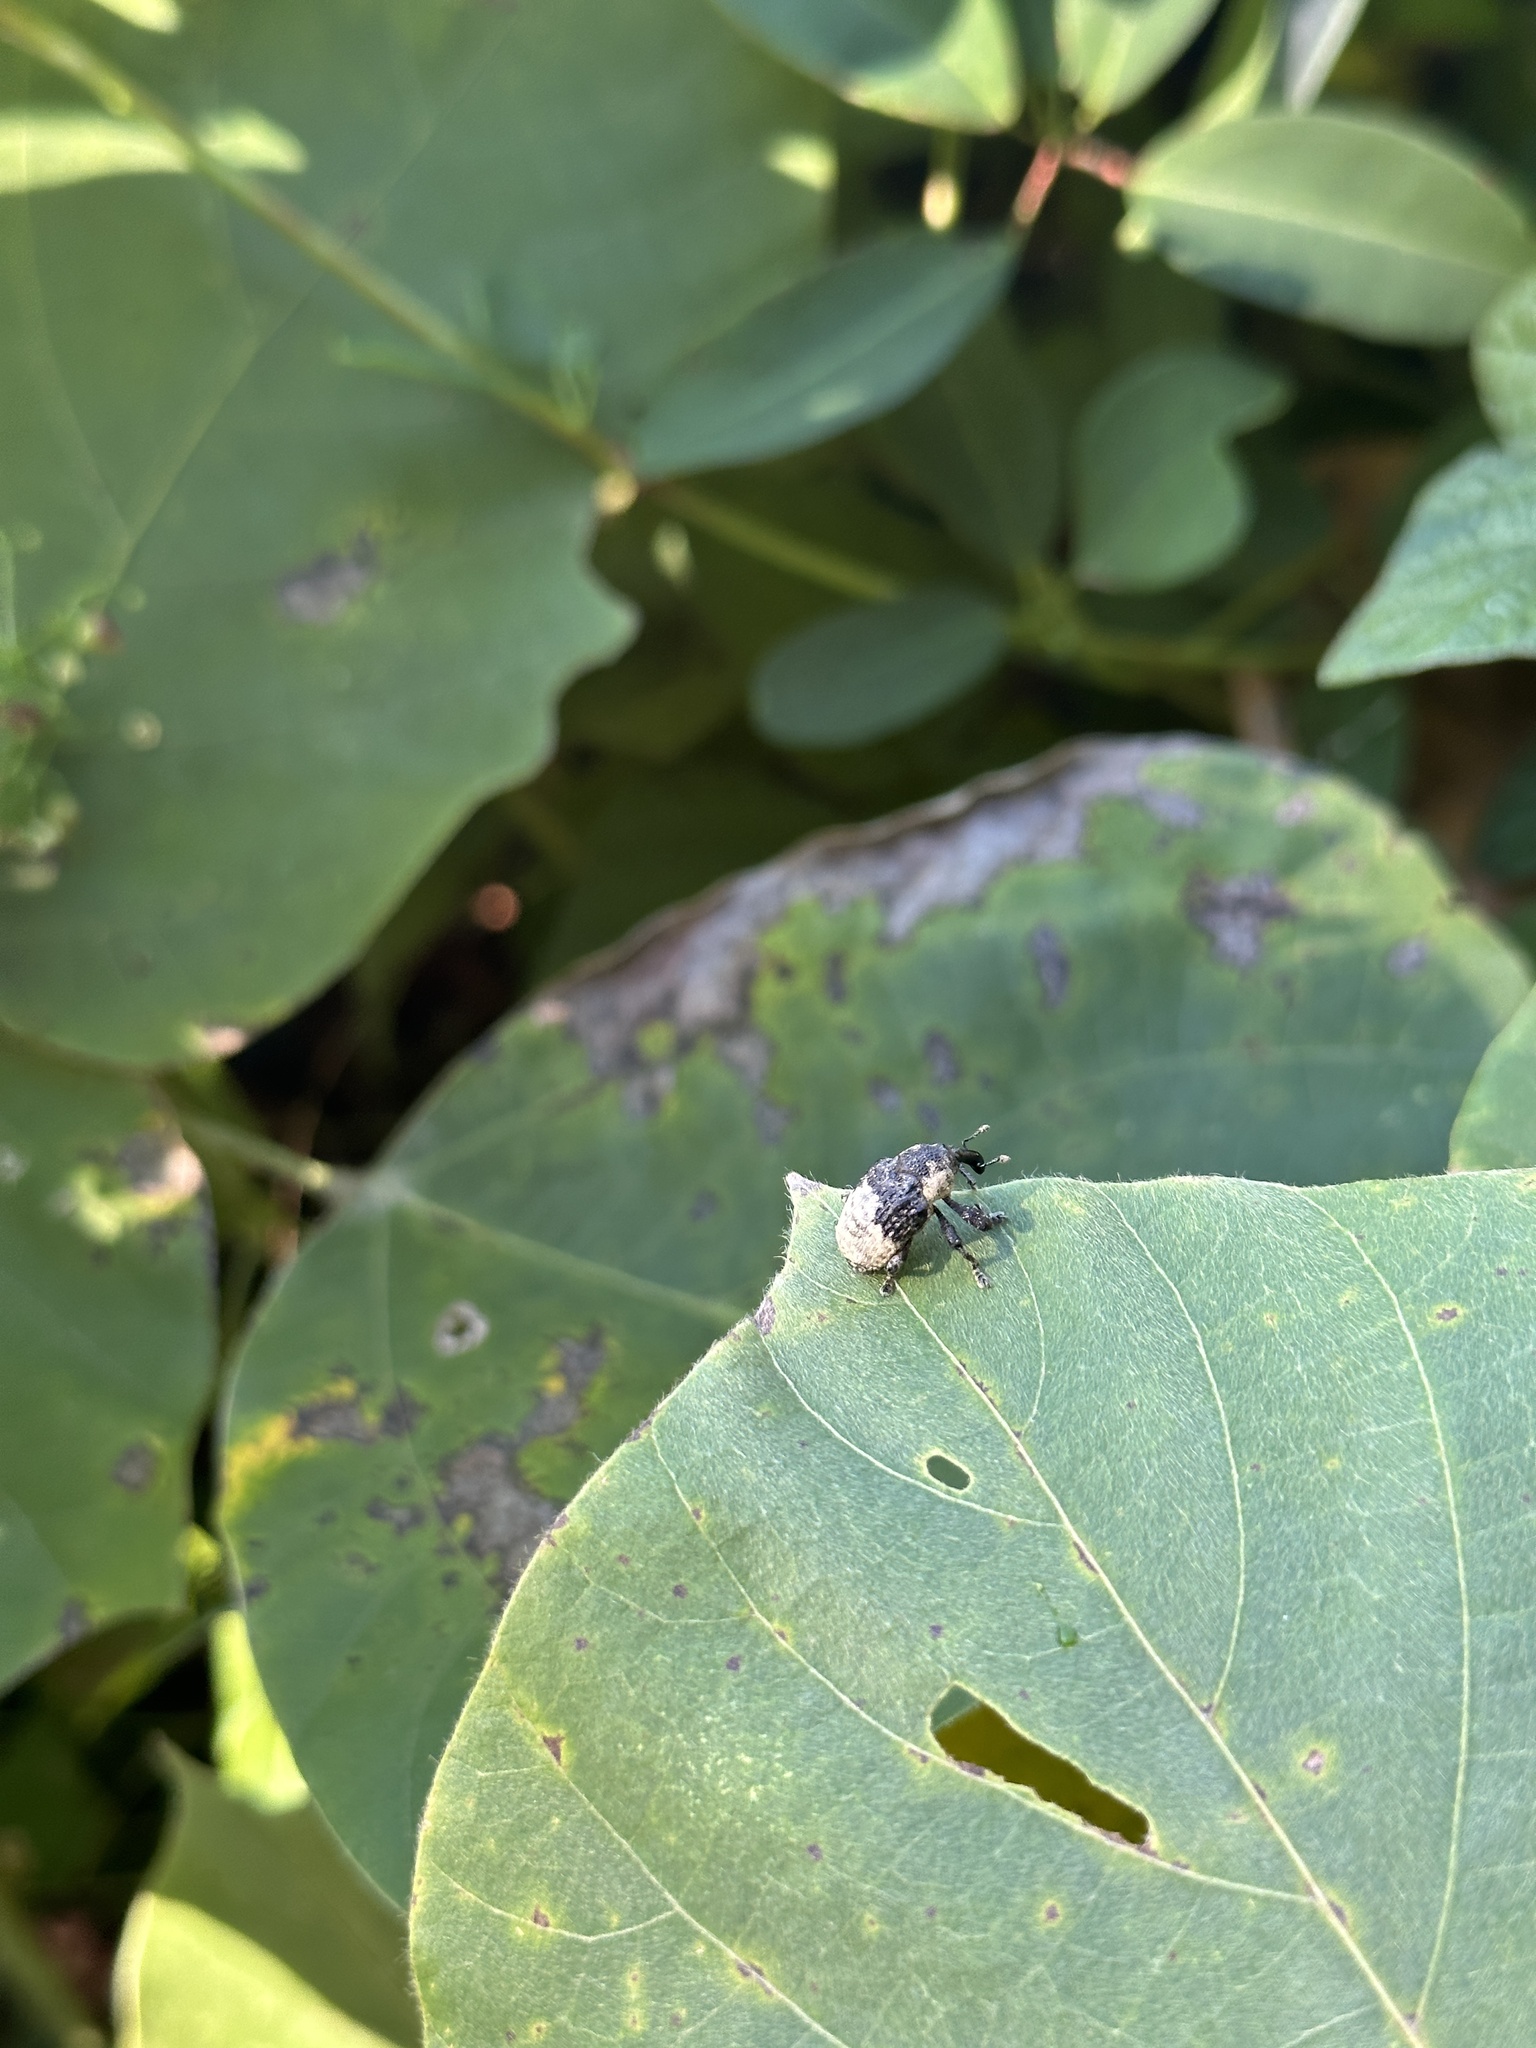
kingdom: Animalia
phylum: Arthropoda
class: Insecta
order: Coleoptera
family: Curculionidae
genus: Alcides
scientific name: Alcides trifidus
